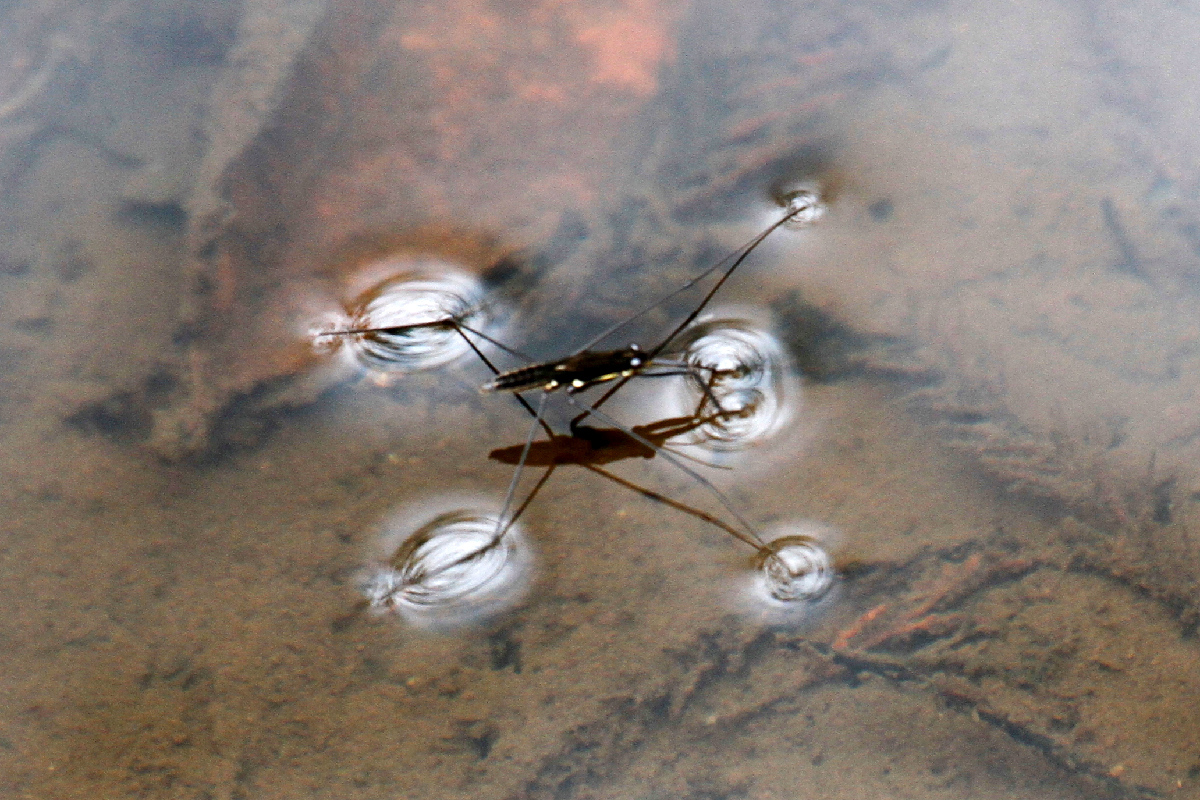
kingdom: Animalia
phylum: Arthropoda
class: Insecta
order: Hemiptera
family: Gerridae
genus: Aquarius
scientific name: Aquarius nebularis
